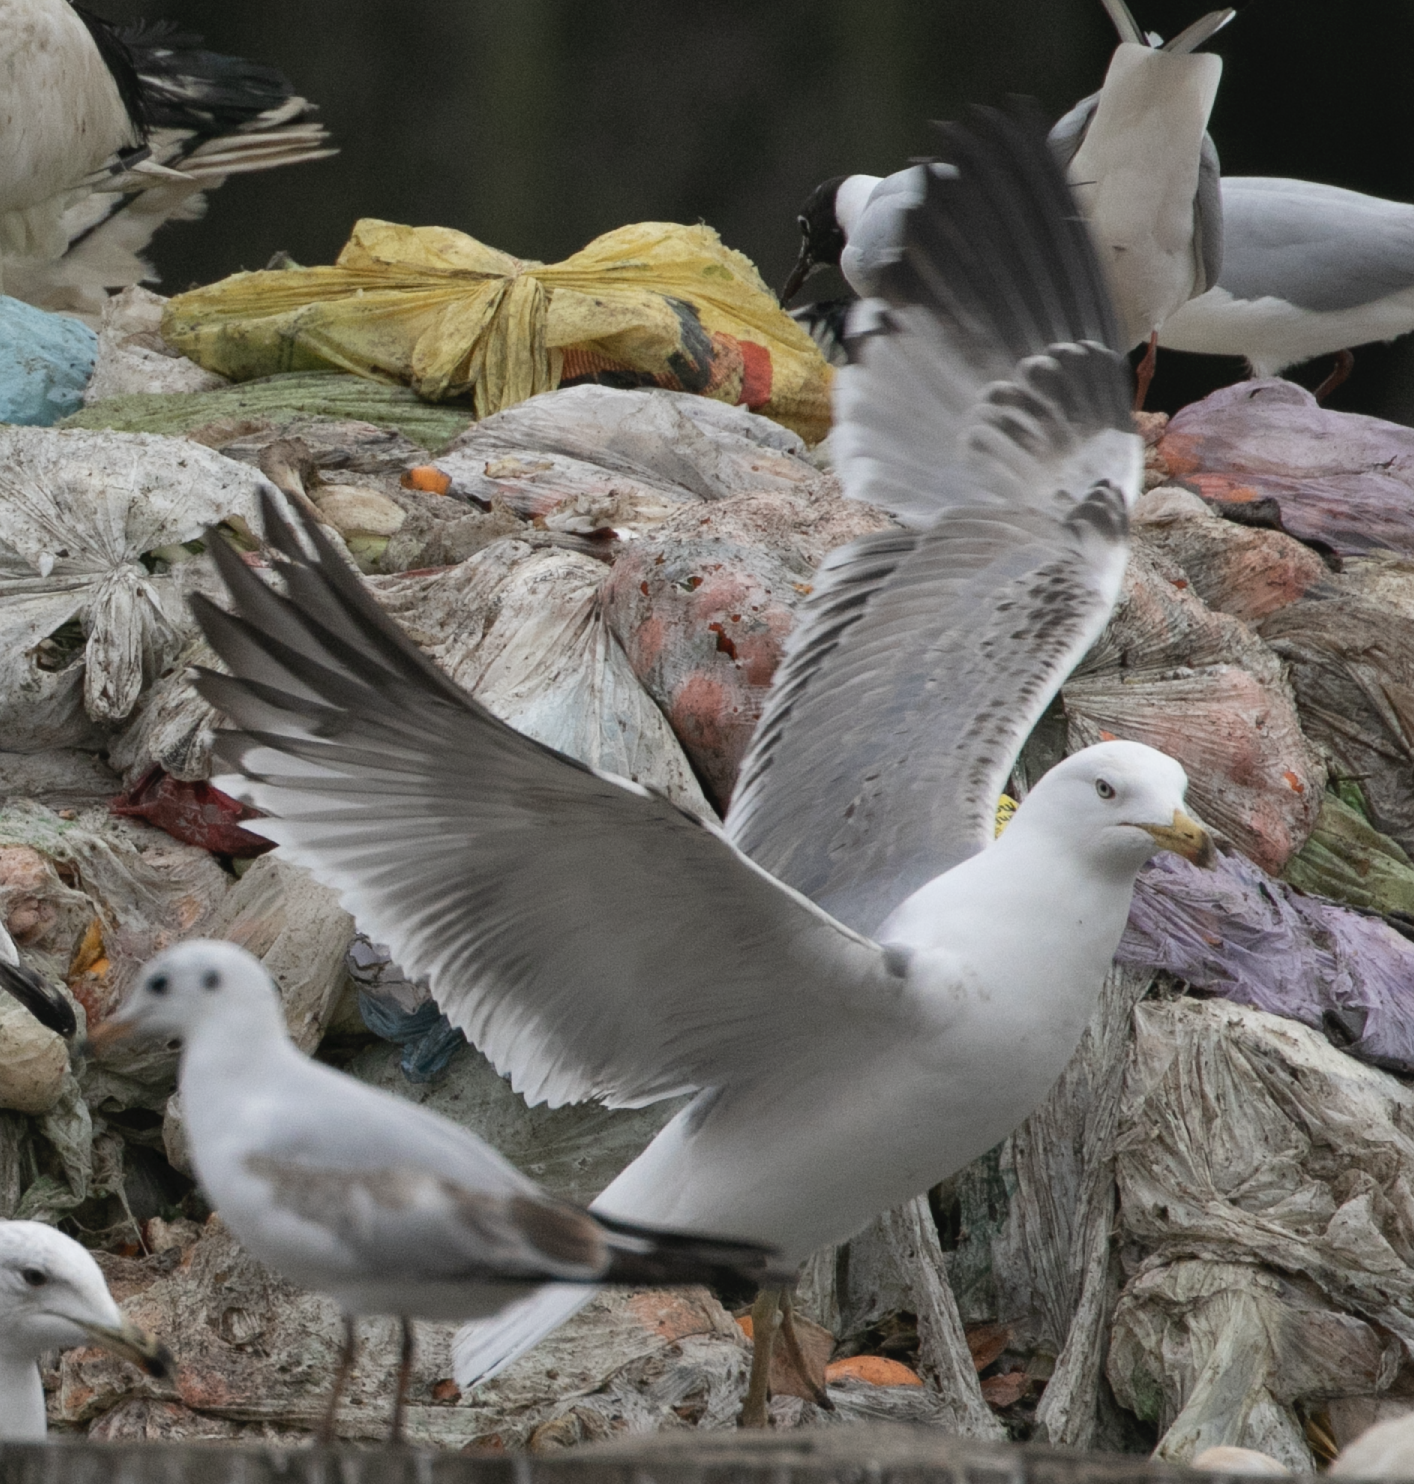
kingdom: Animalia
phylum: Chordata
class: Aves
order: Charadriiformes
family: Laridae
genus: Larus
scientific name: Larus michahellis
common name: Yellow-legged gull
